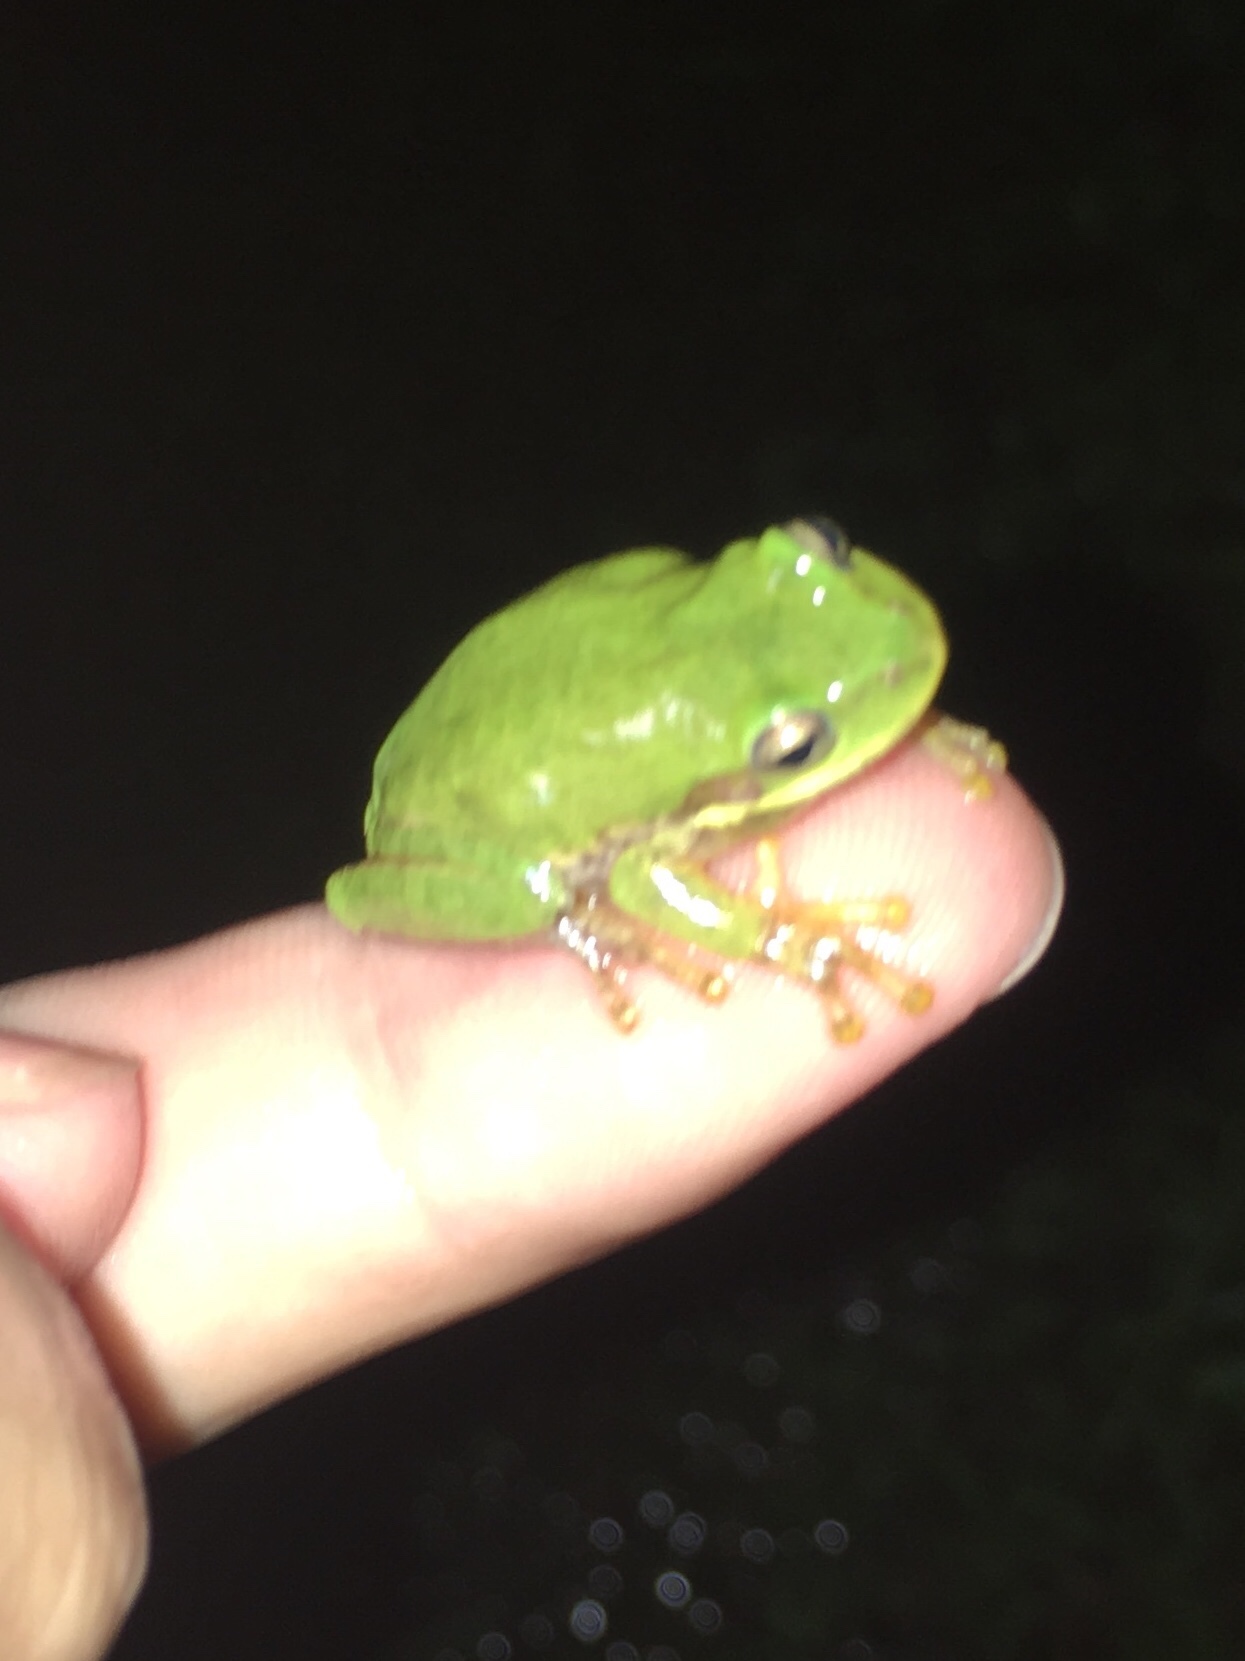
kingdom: Animalia
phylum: Chordata
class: Amphibia
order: Anura
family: Hylidae
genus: Dryophytes
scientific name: Dryophytes squirellus
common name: Squirrel treefrog
